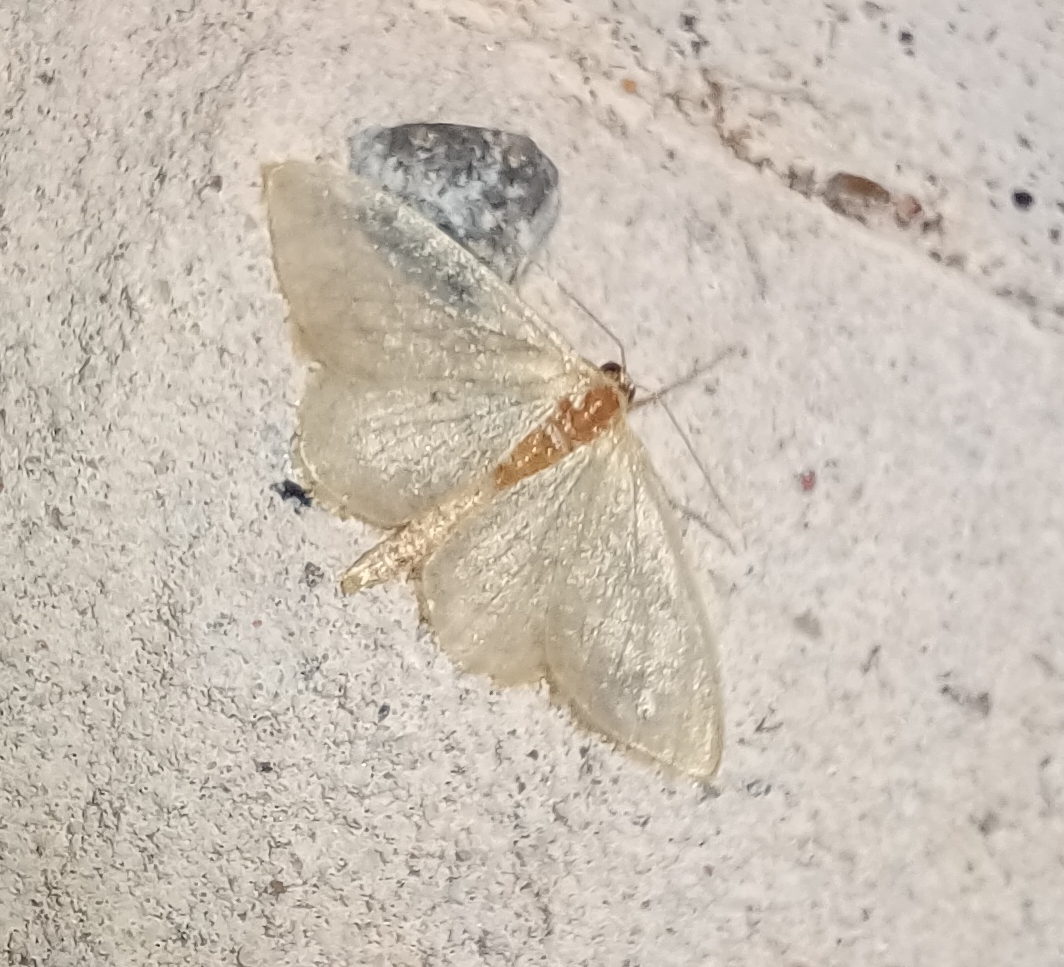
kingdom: Animalia
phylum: Arthropoda
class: Insecta
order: Lepidoptera
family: Geometridae
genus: Idaea
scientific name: Idaea biselata
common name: Small fan-footed wave
